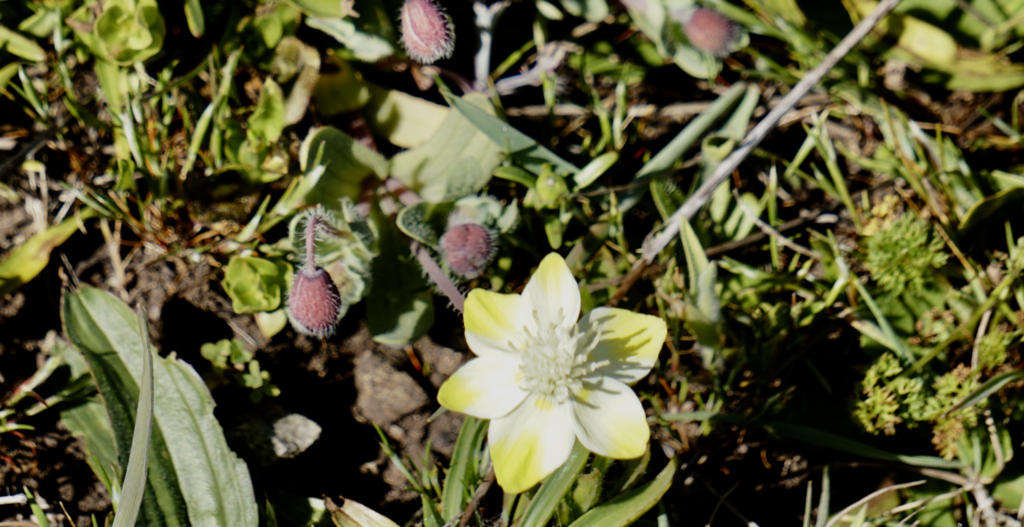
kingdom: Plantae
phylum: Tracheophyta
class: Magnoliopsida
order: Ranunculales
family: Papaveraceae
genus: Platystemon
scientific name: Platystemon californicus
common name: Cream-cups
